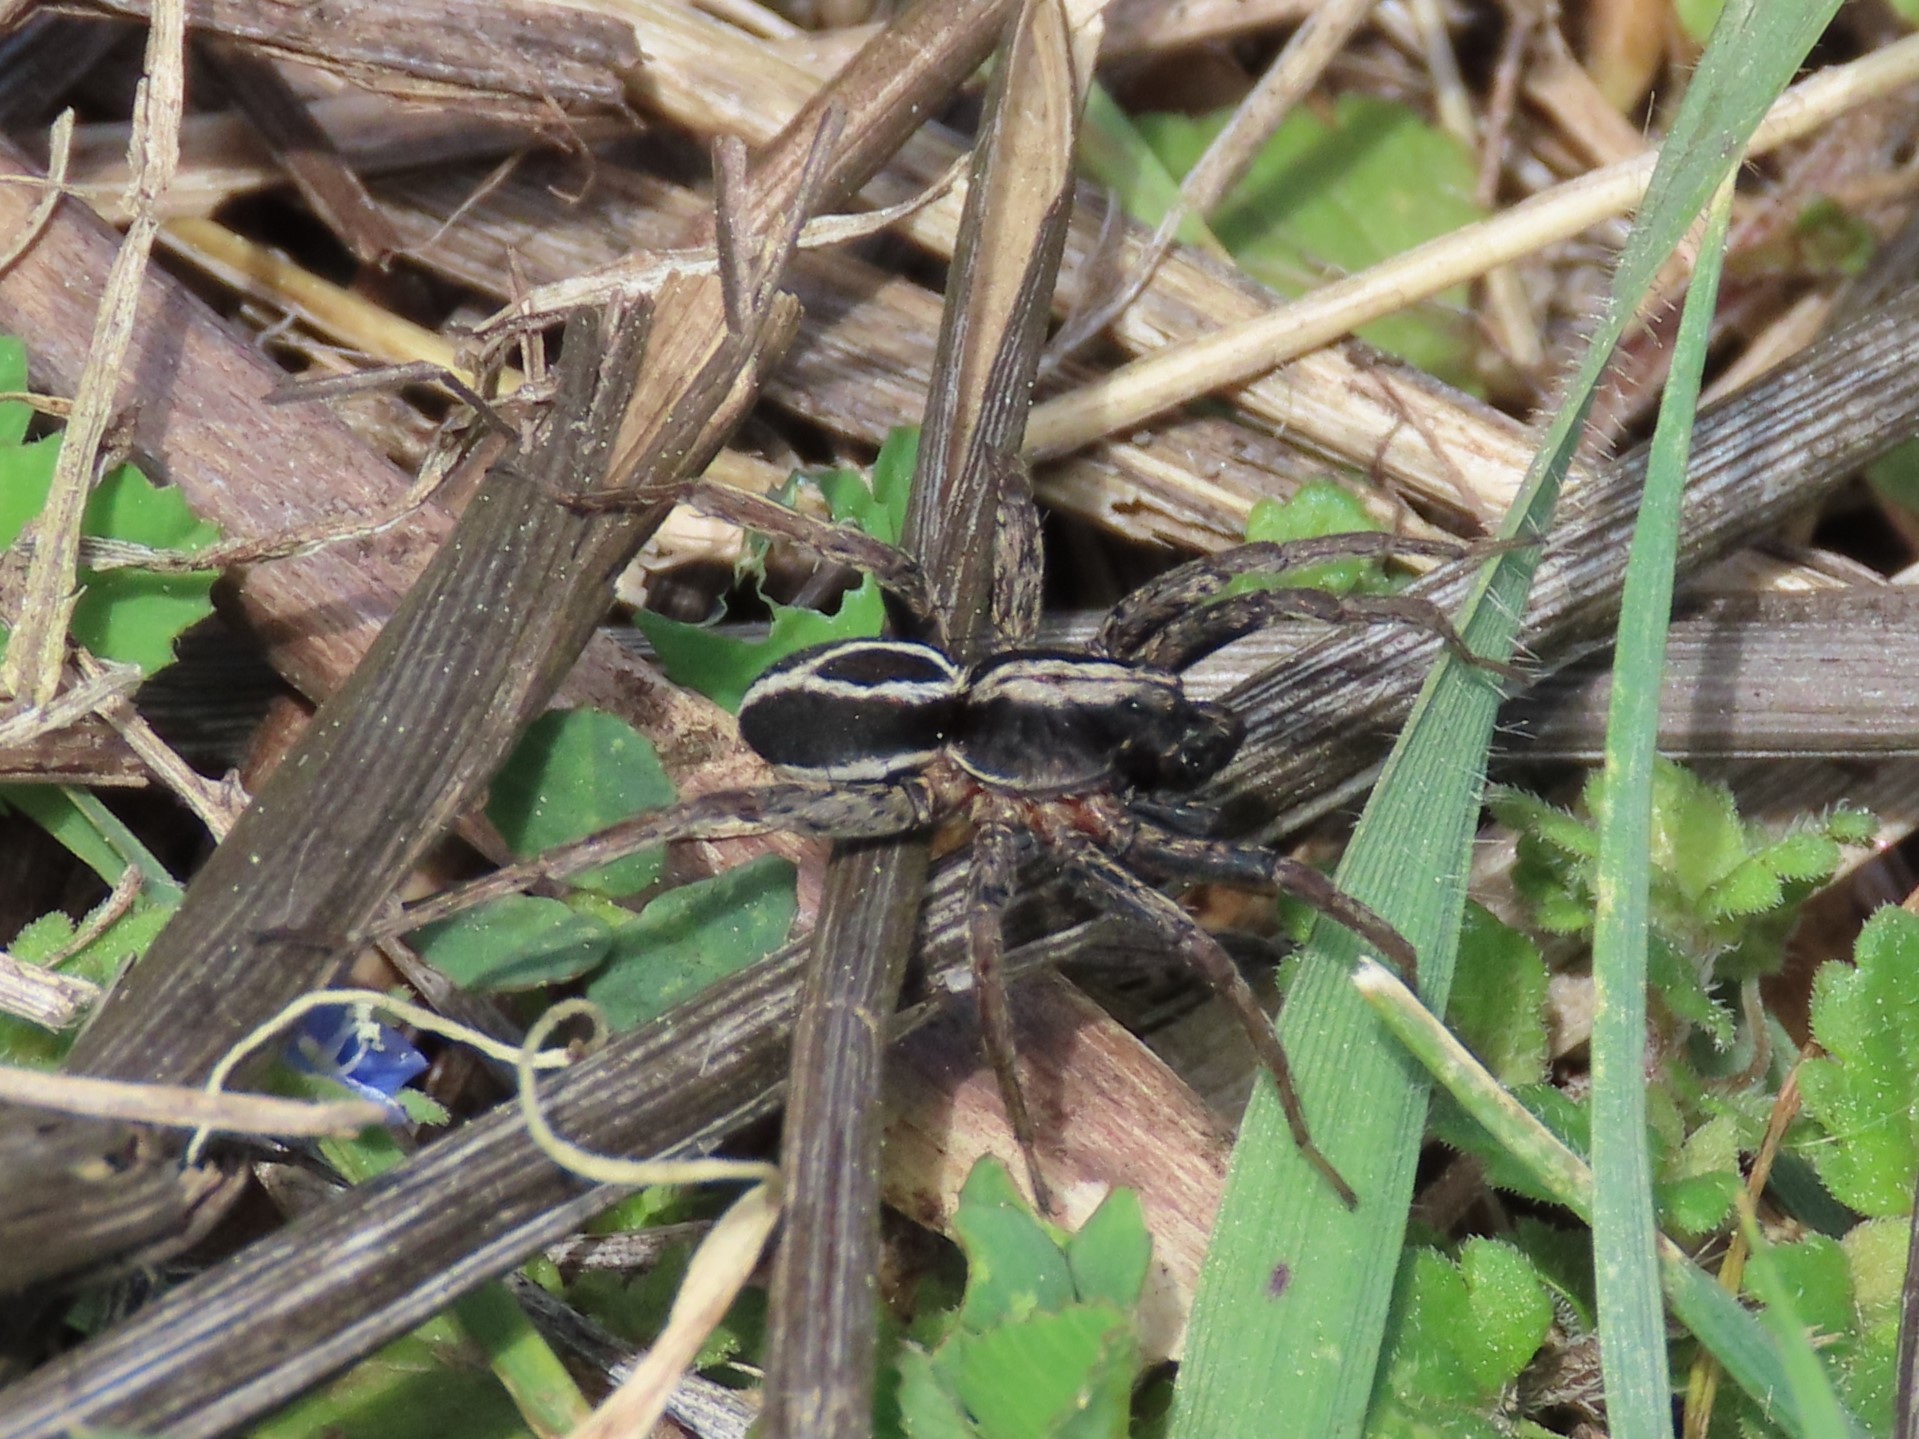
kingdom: Animalia
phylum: Arthropoda
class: Arachnida
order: Araneae
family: Lycosidae
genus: Alopecosa
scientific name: Alopecosa albofasciata
